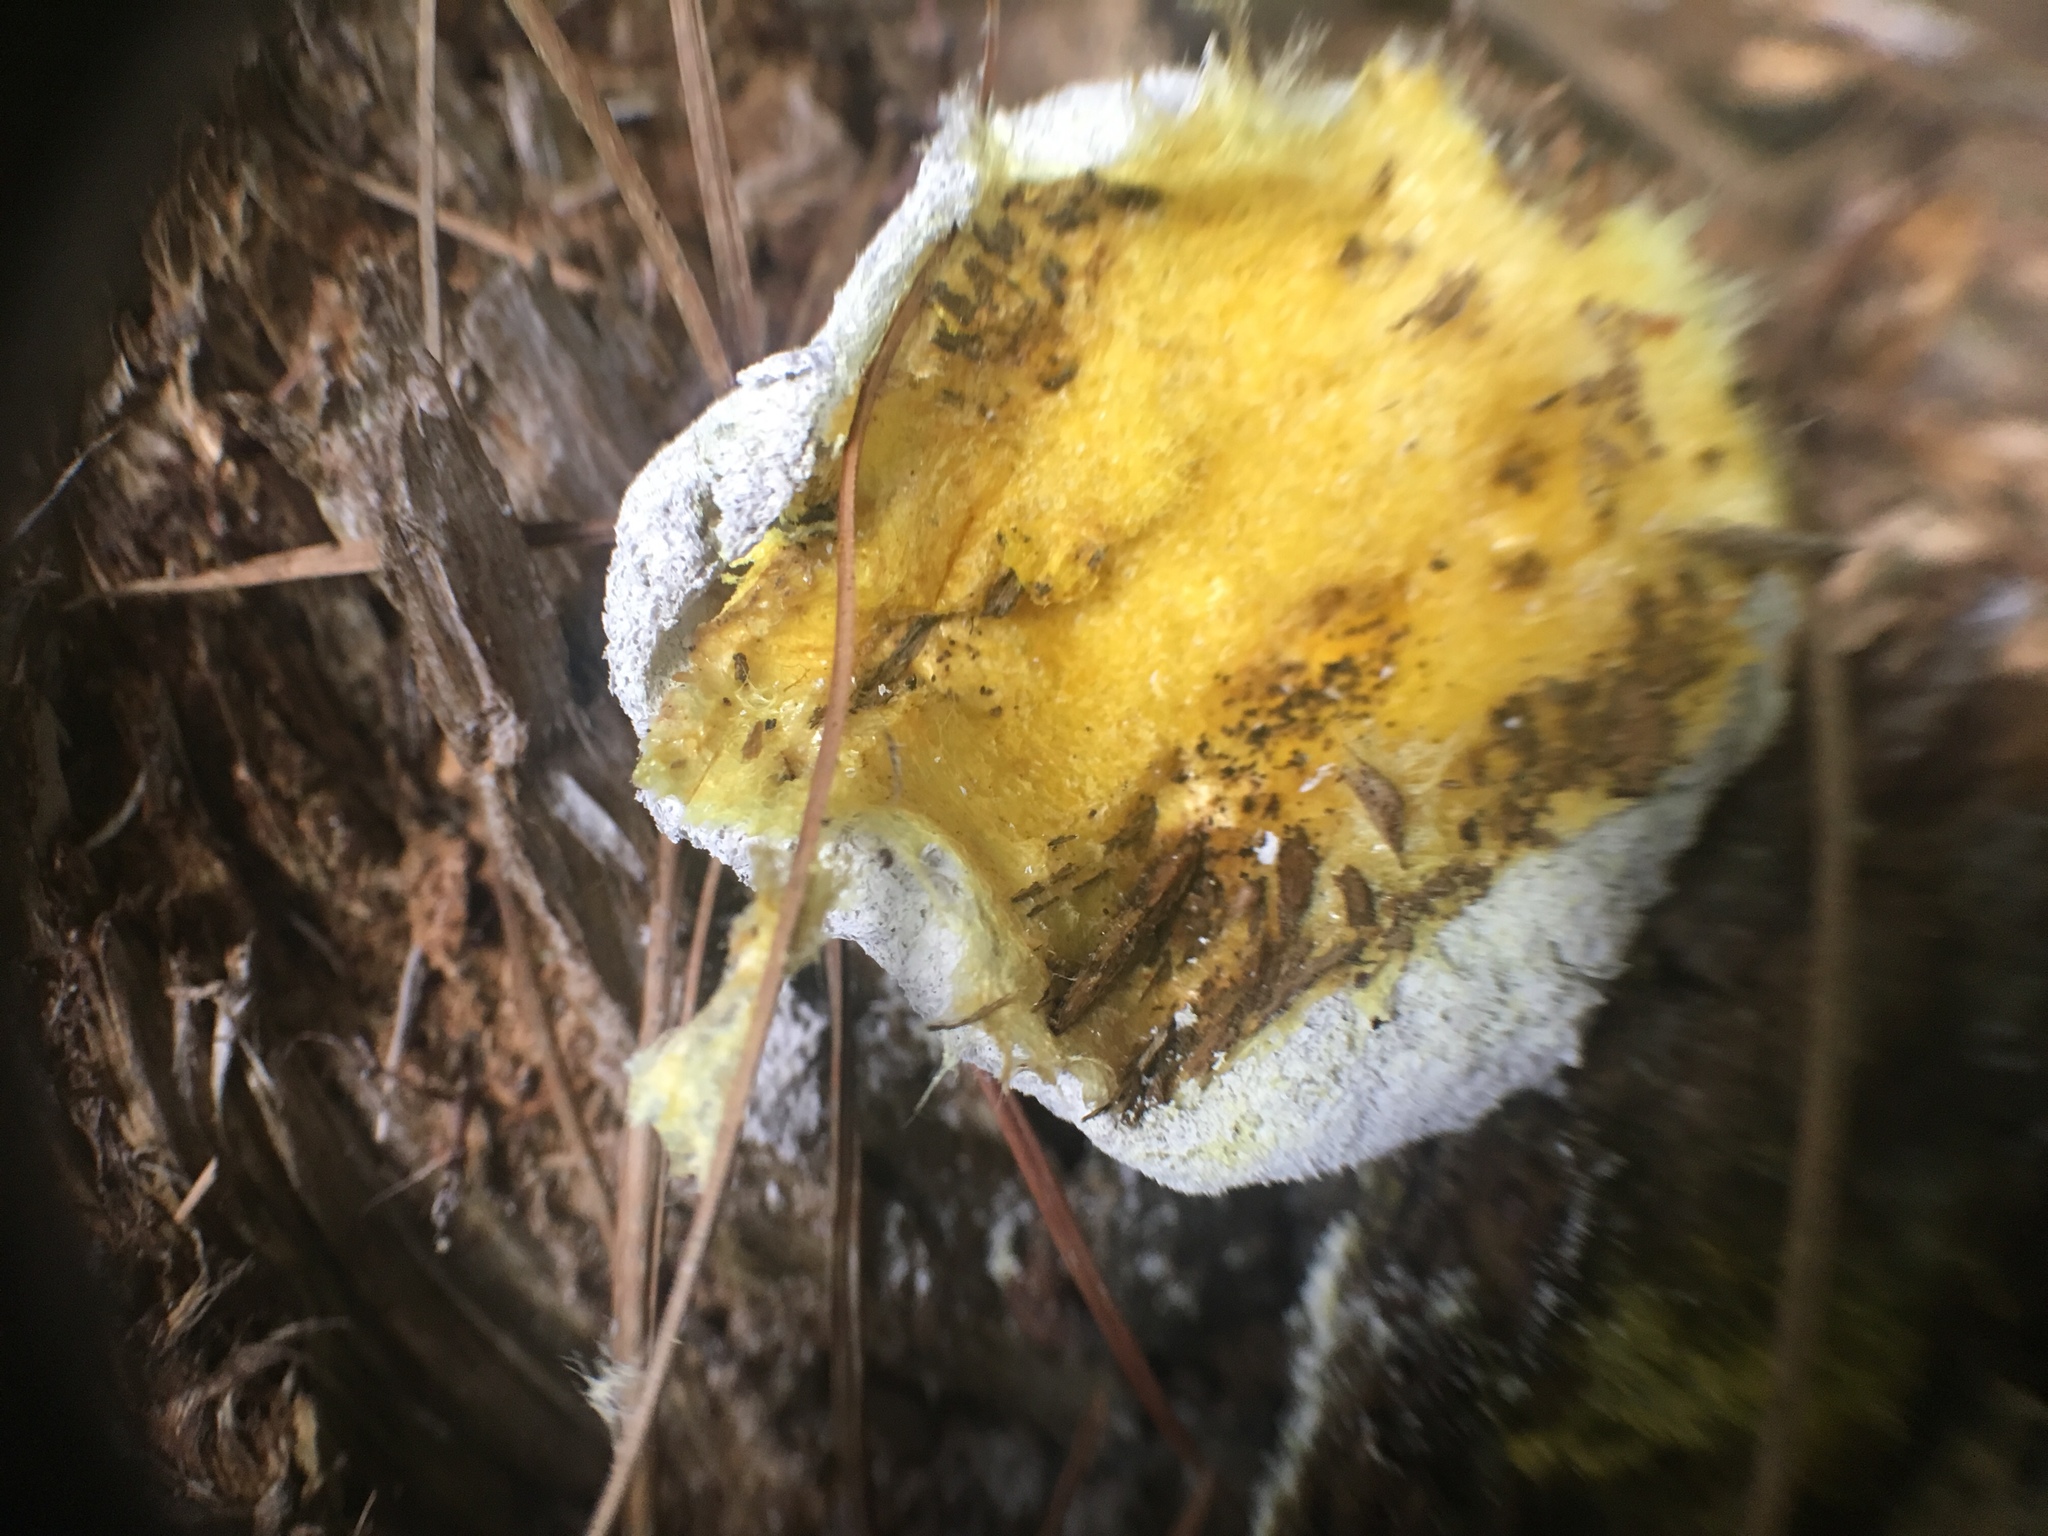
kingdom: Protozoa
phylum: Mycetozoa
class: Myxomycetes
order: Physarales
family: Physaraceae
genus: Fuligo
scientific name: Fuligo septica
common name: Dog vomit slime mold
